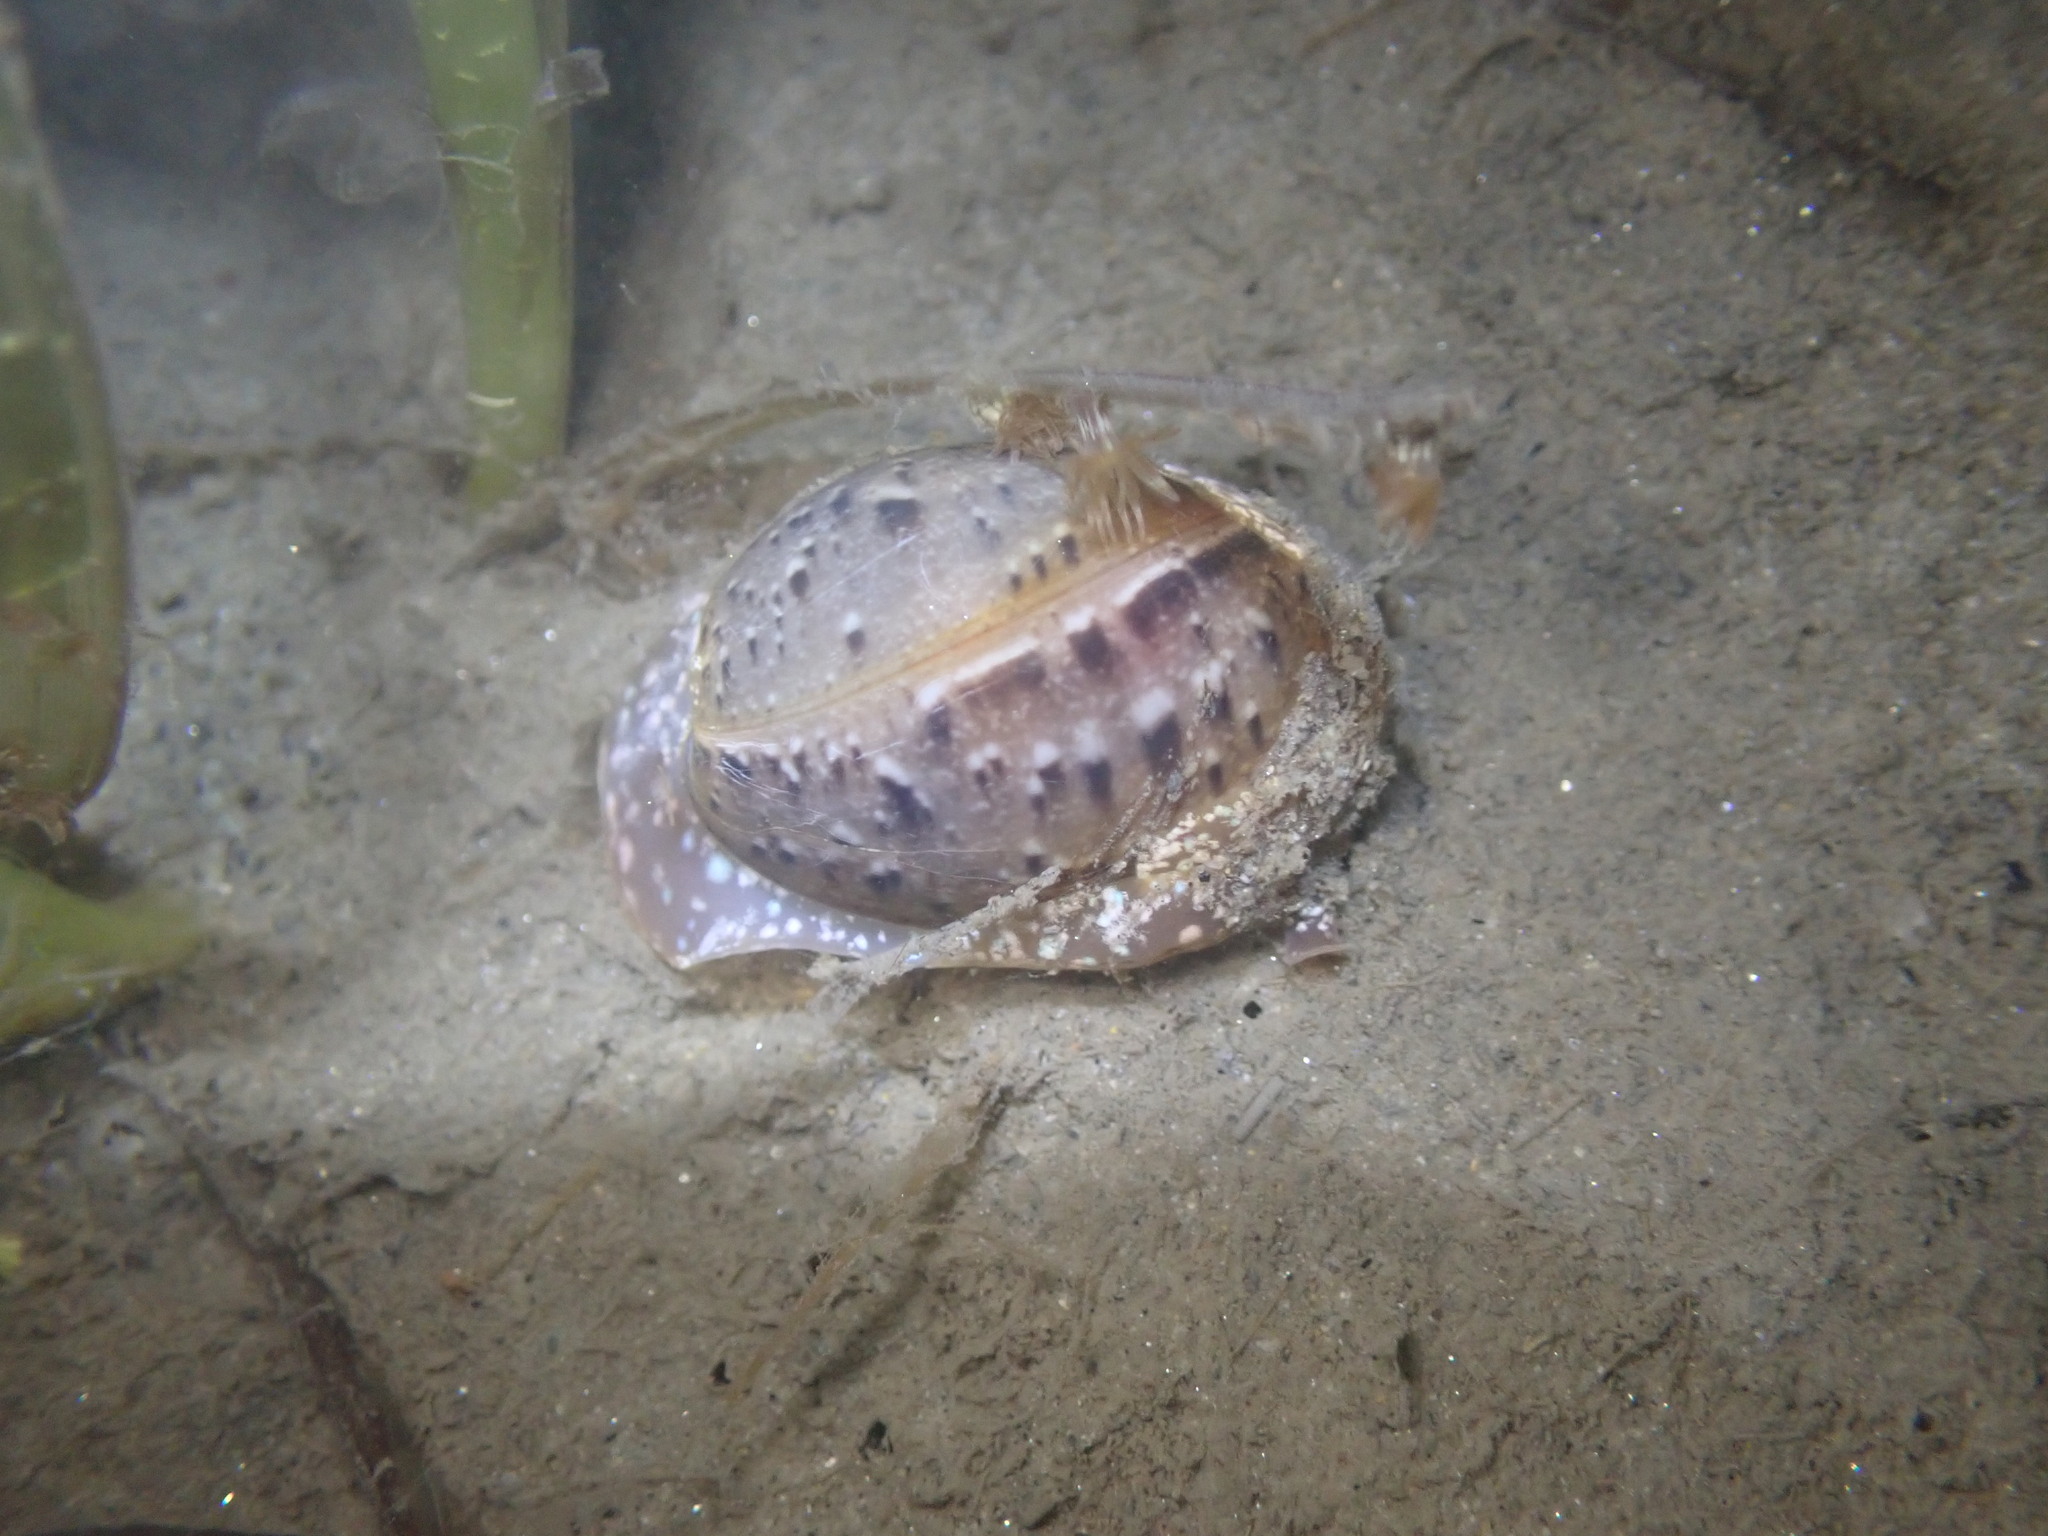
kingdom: Animalia
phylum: Mollusca
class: Gastropoda
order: Cephalaspidea
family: Bullidae
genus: Bulla
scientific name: Bulla gouldiana
